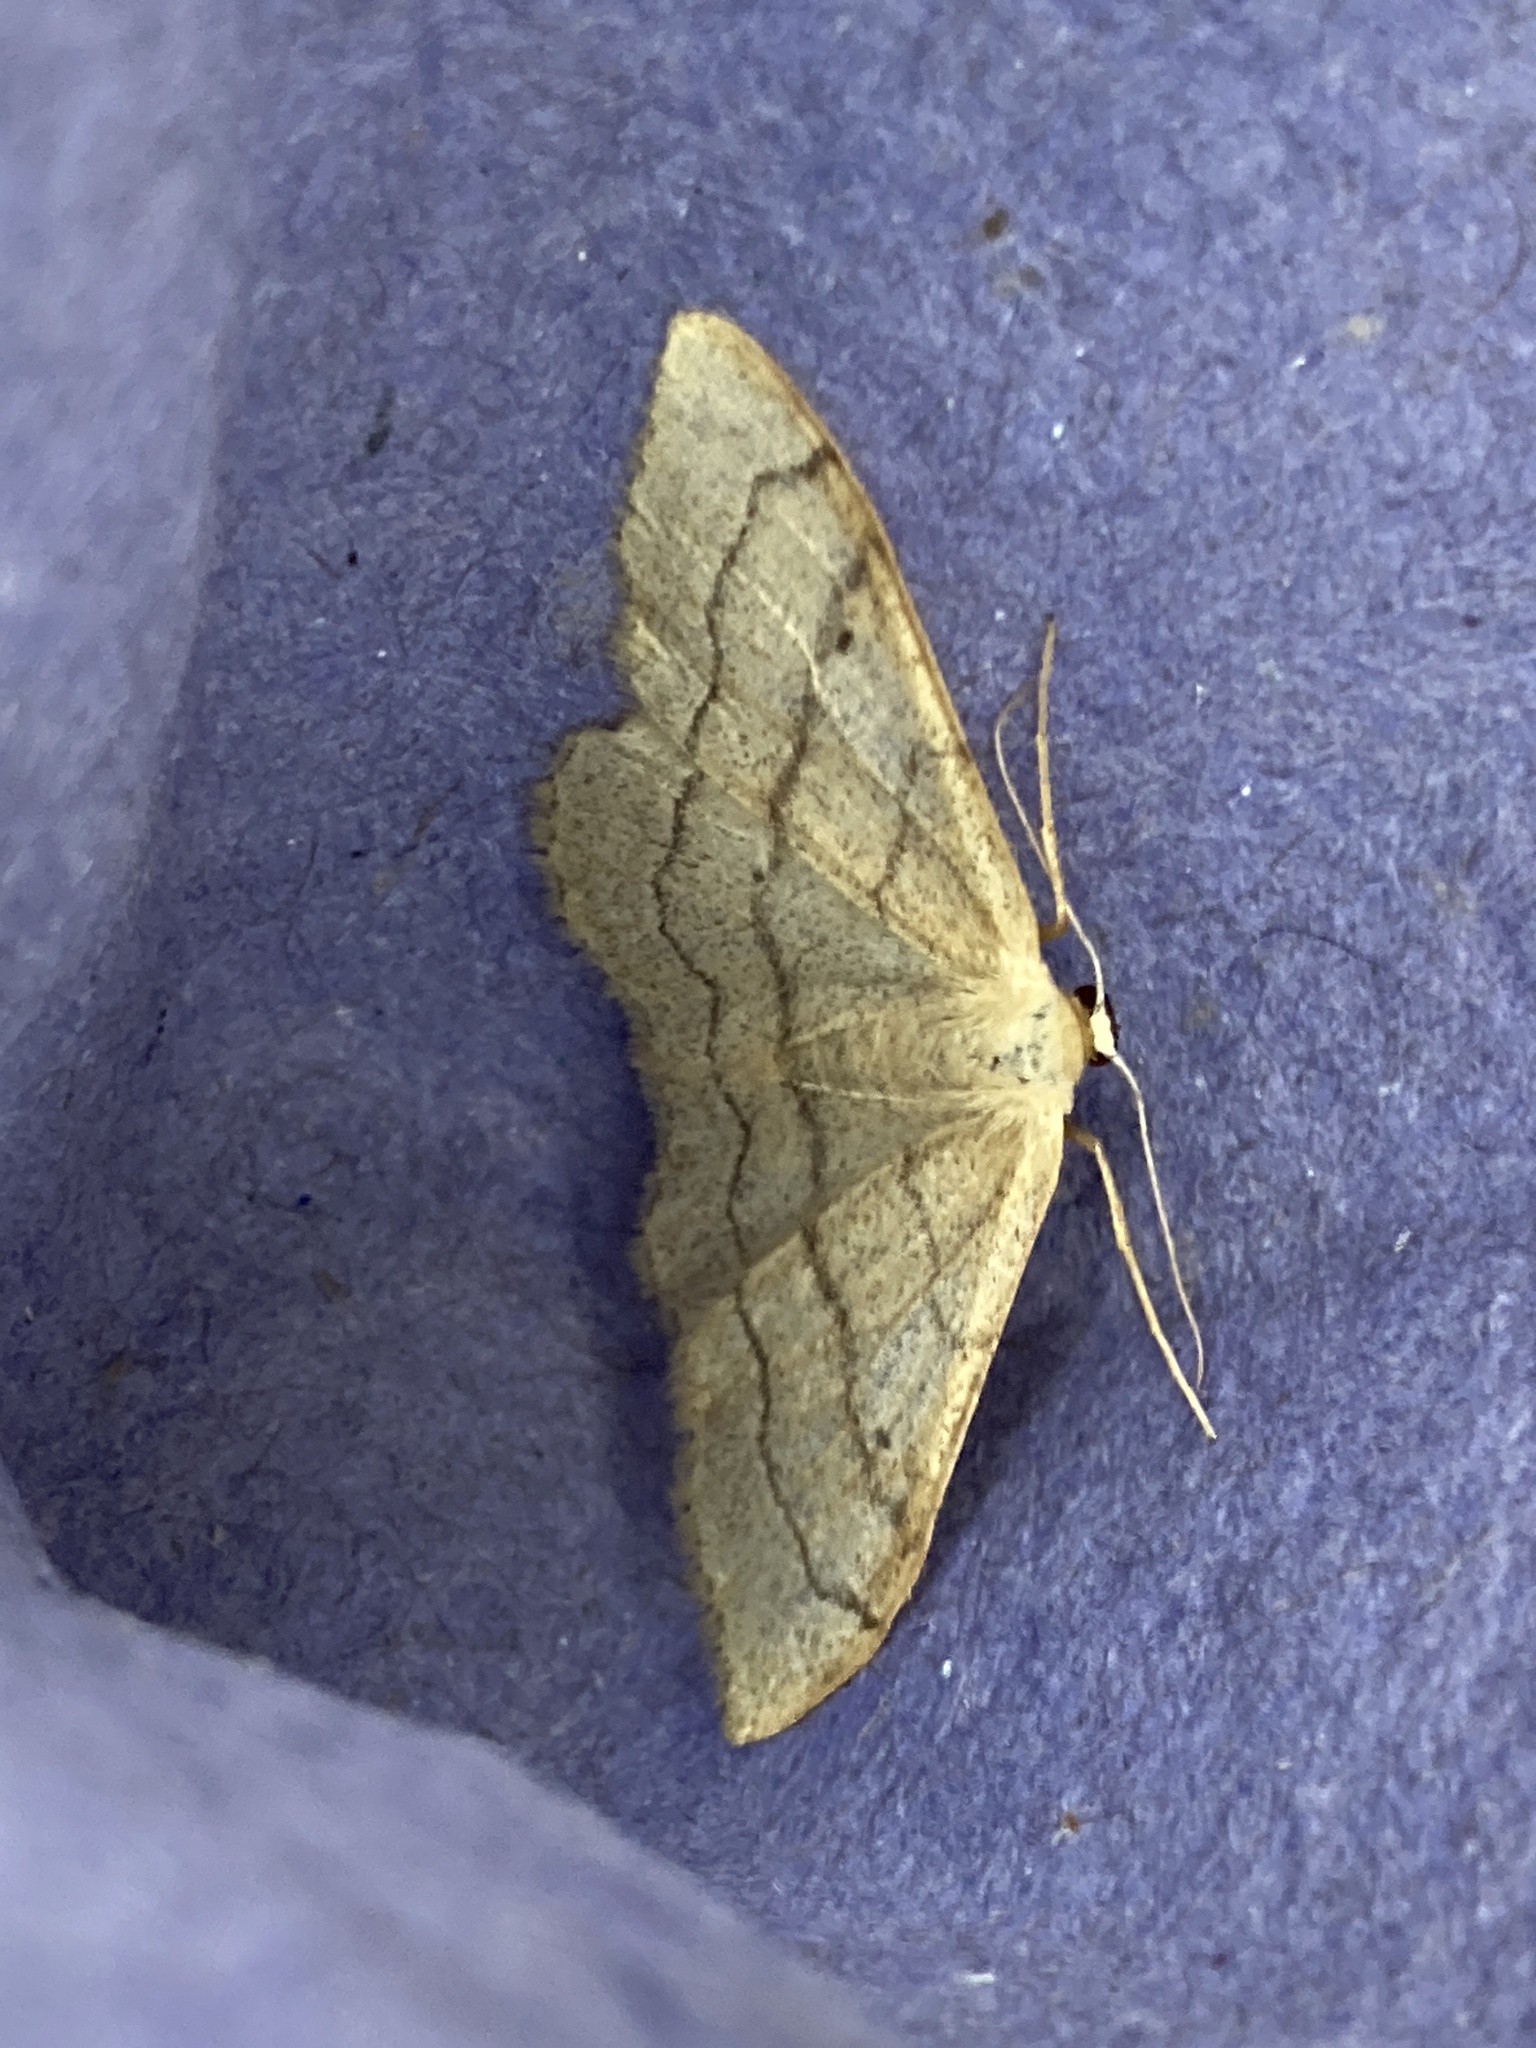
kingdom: Animalia
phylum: Arthropoda
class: Insecta
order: Lepidoptera
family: Geometridae
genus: Idaea
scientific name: Idaea aversata
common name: Riband wave
